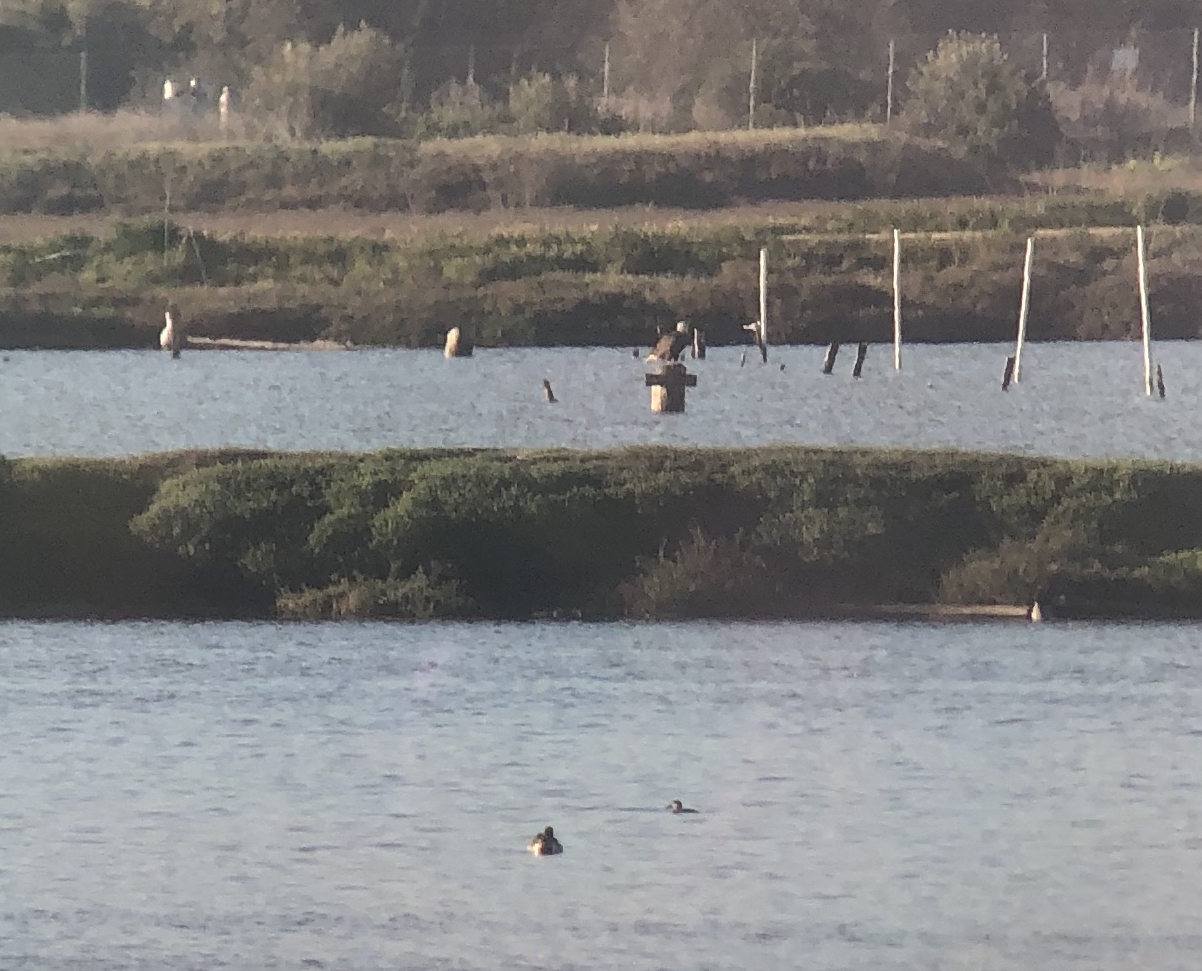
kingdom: Animalia
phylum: Chordata
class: Aves
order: Accipitriformes
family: Accipitridae
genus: Haliaeetus
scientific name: Haliaeetus leucocephalus
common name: Bald eagle
